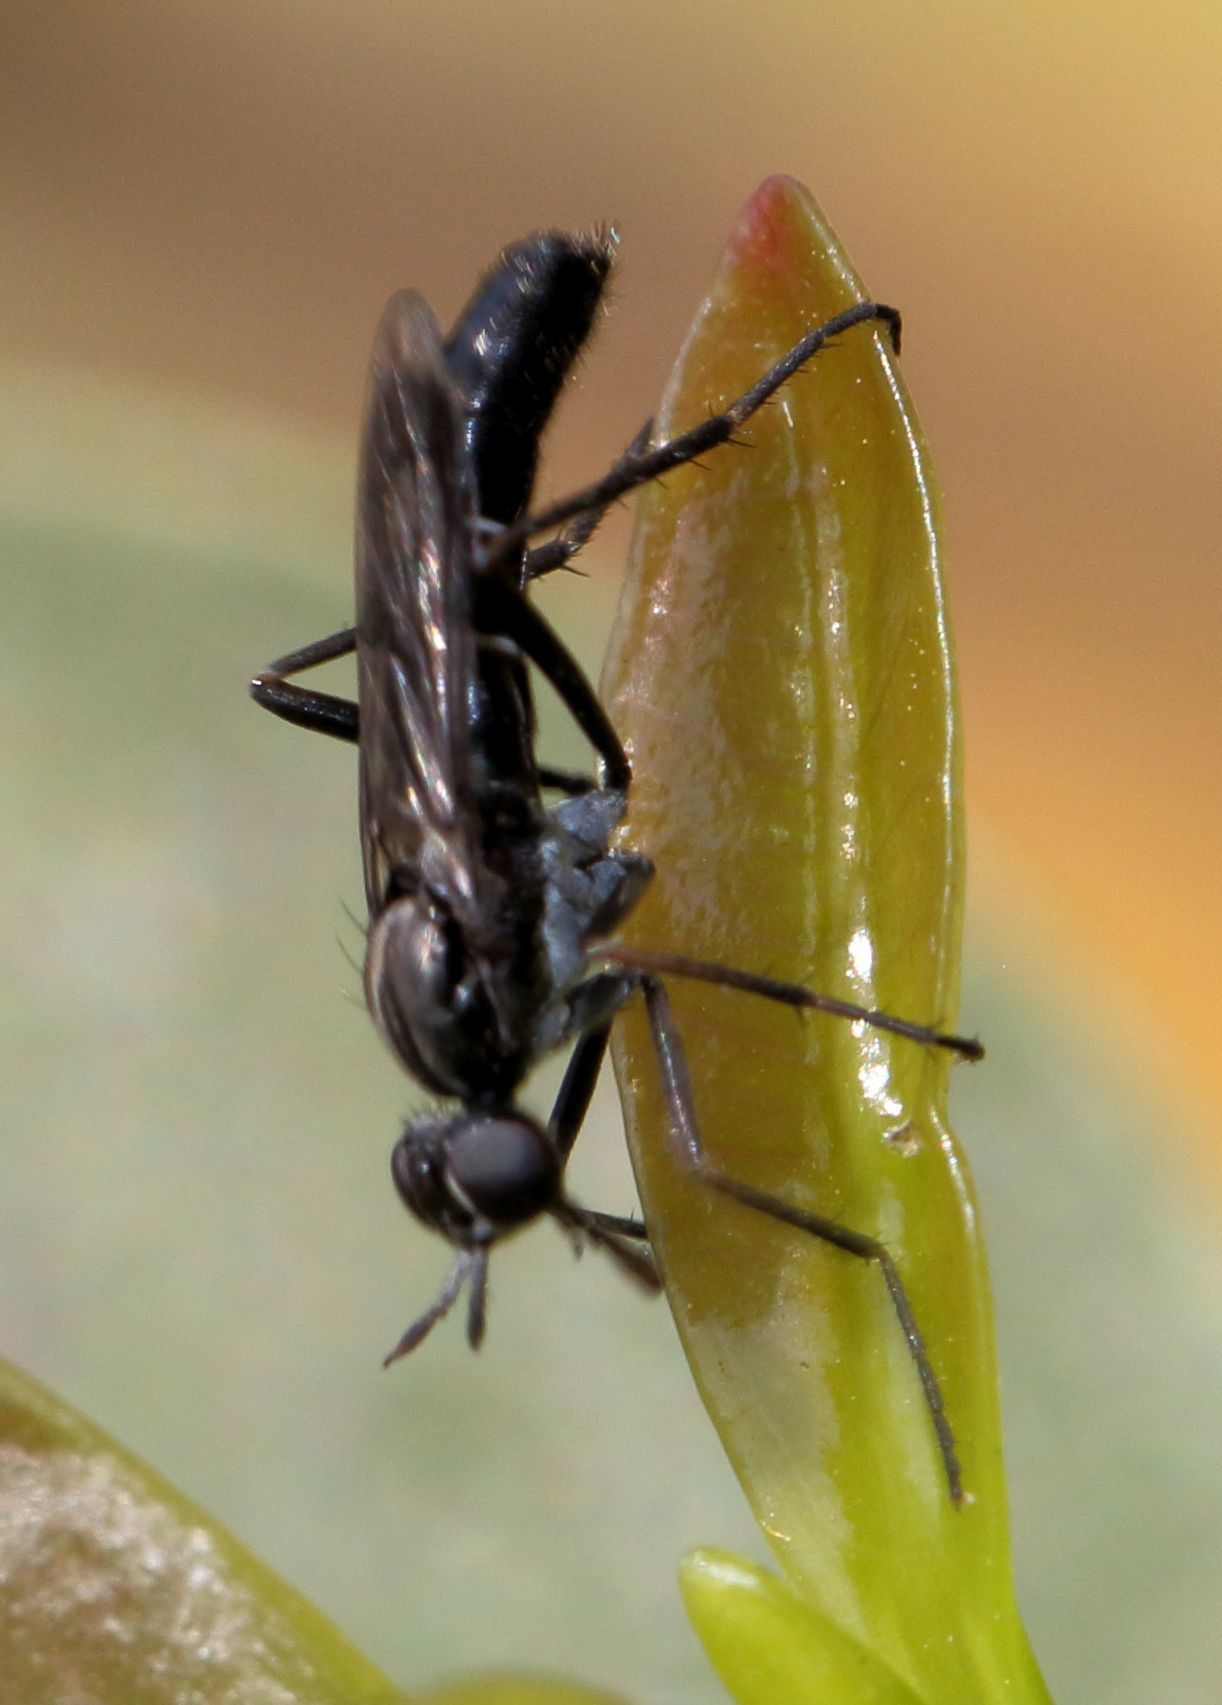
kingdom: Animalia
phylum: Arthropoda
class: Insecta
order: Diptera
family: Therevidae
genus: Hemigephyra
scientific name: Hemigephyra atra
